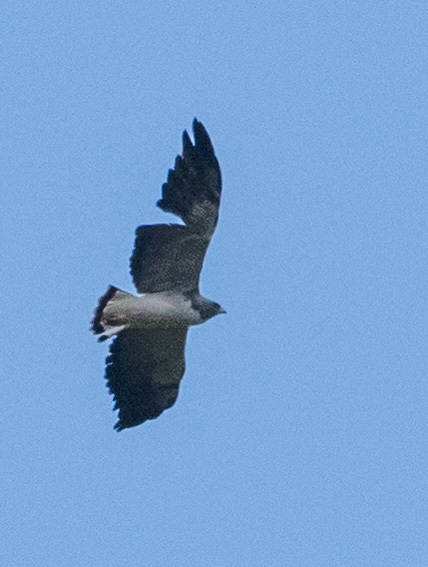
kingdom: Animalia
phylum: Chordata
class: Aves
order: Accipitriformes
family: Accipitridae
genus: Geranoaetus
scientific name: Geranoaetus melanoleucus
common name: Black-chested buzzard-eagle
